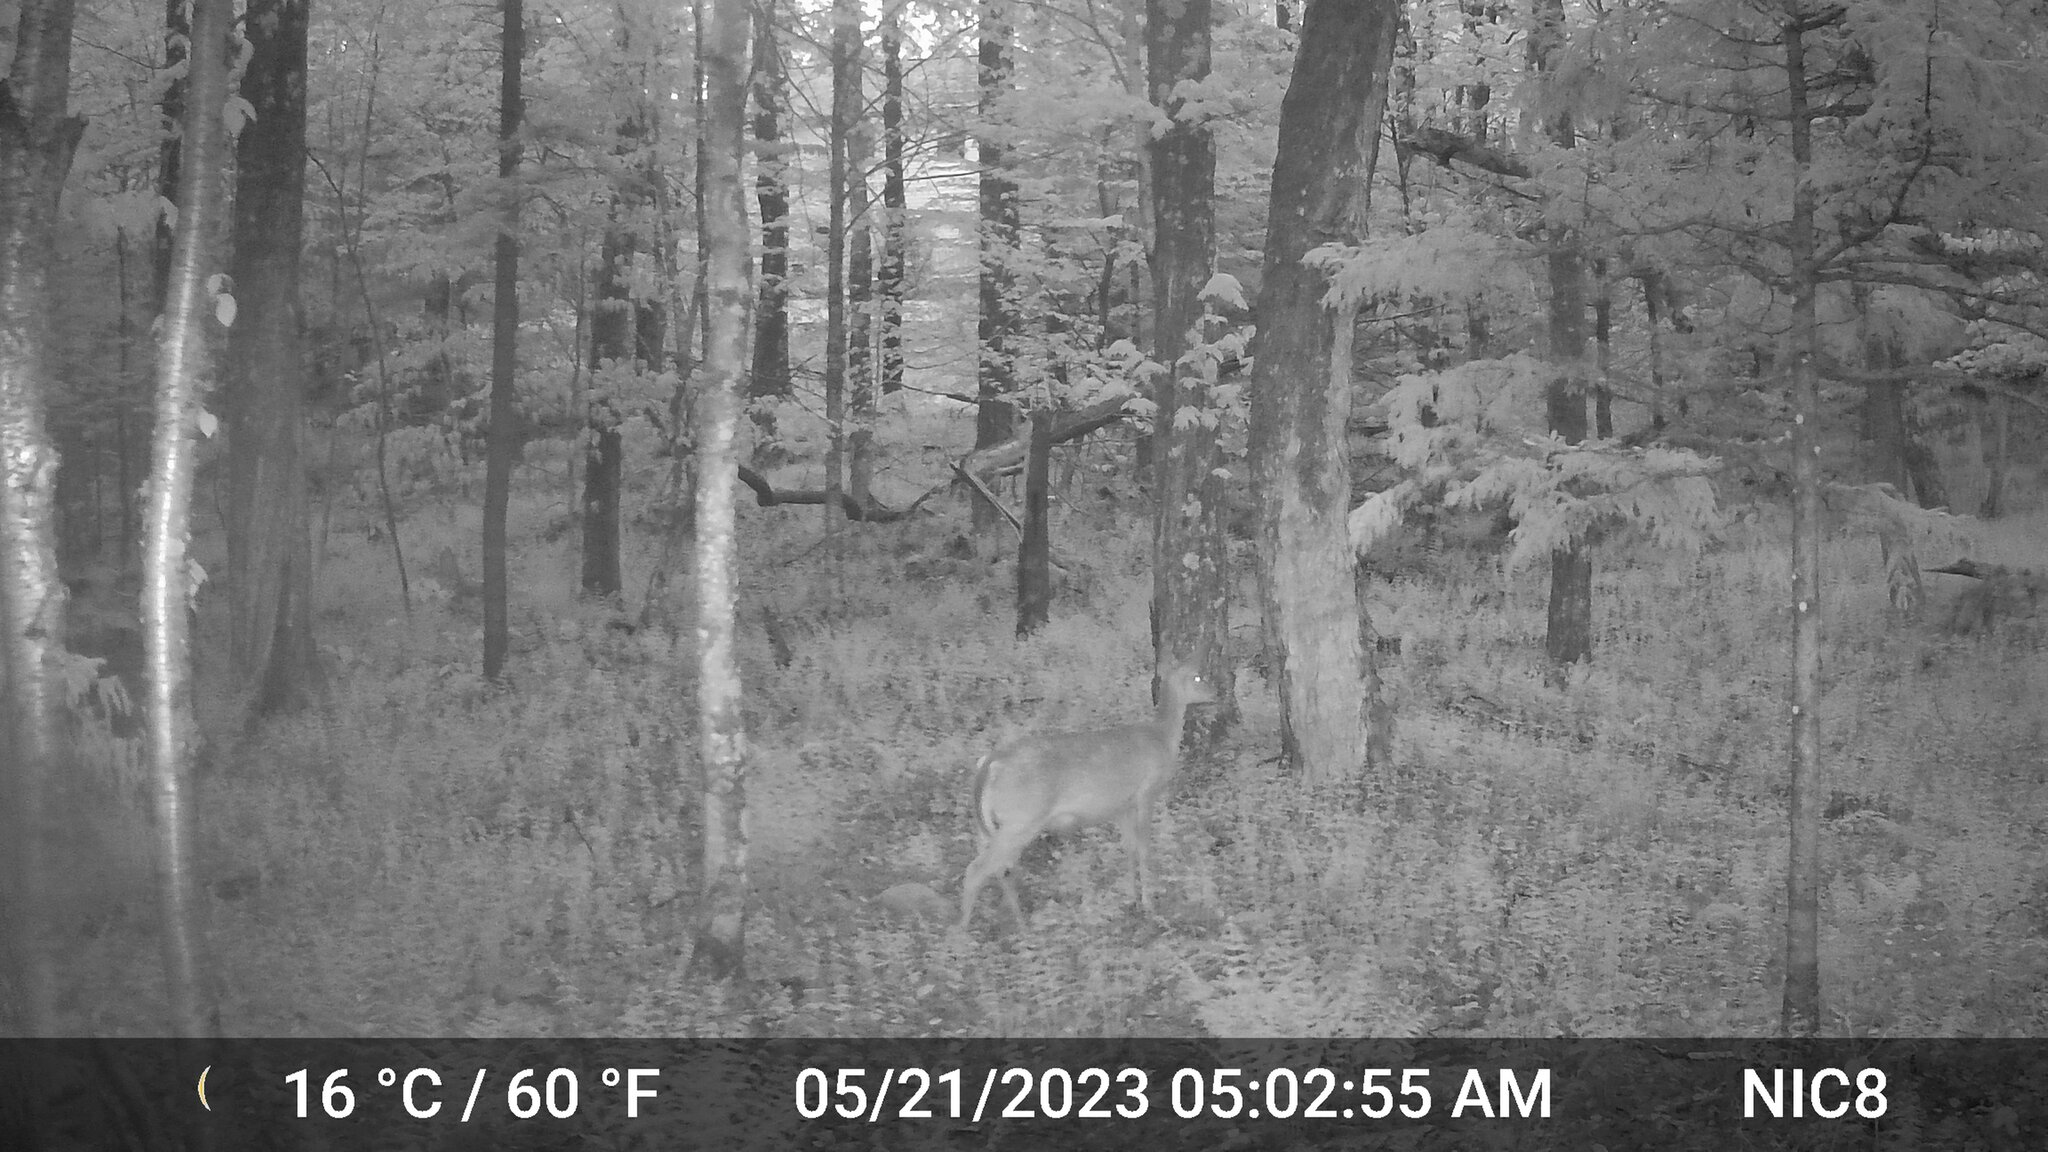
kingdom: Animalia
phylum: Chordata
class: Mammalia
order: Artiodactyla
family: Cervidae
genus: Odocoileus
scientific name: Odocoileus virginianus
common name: White-tailed deer
